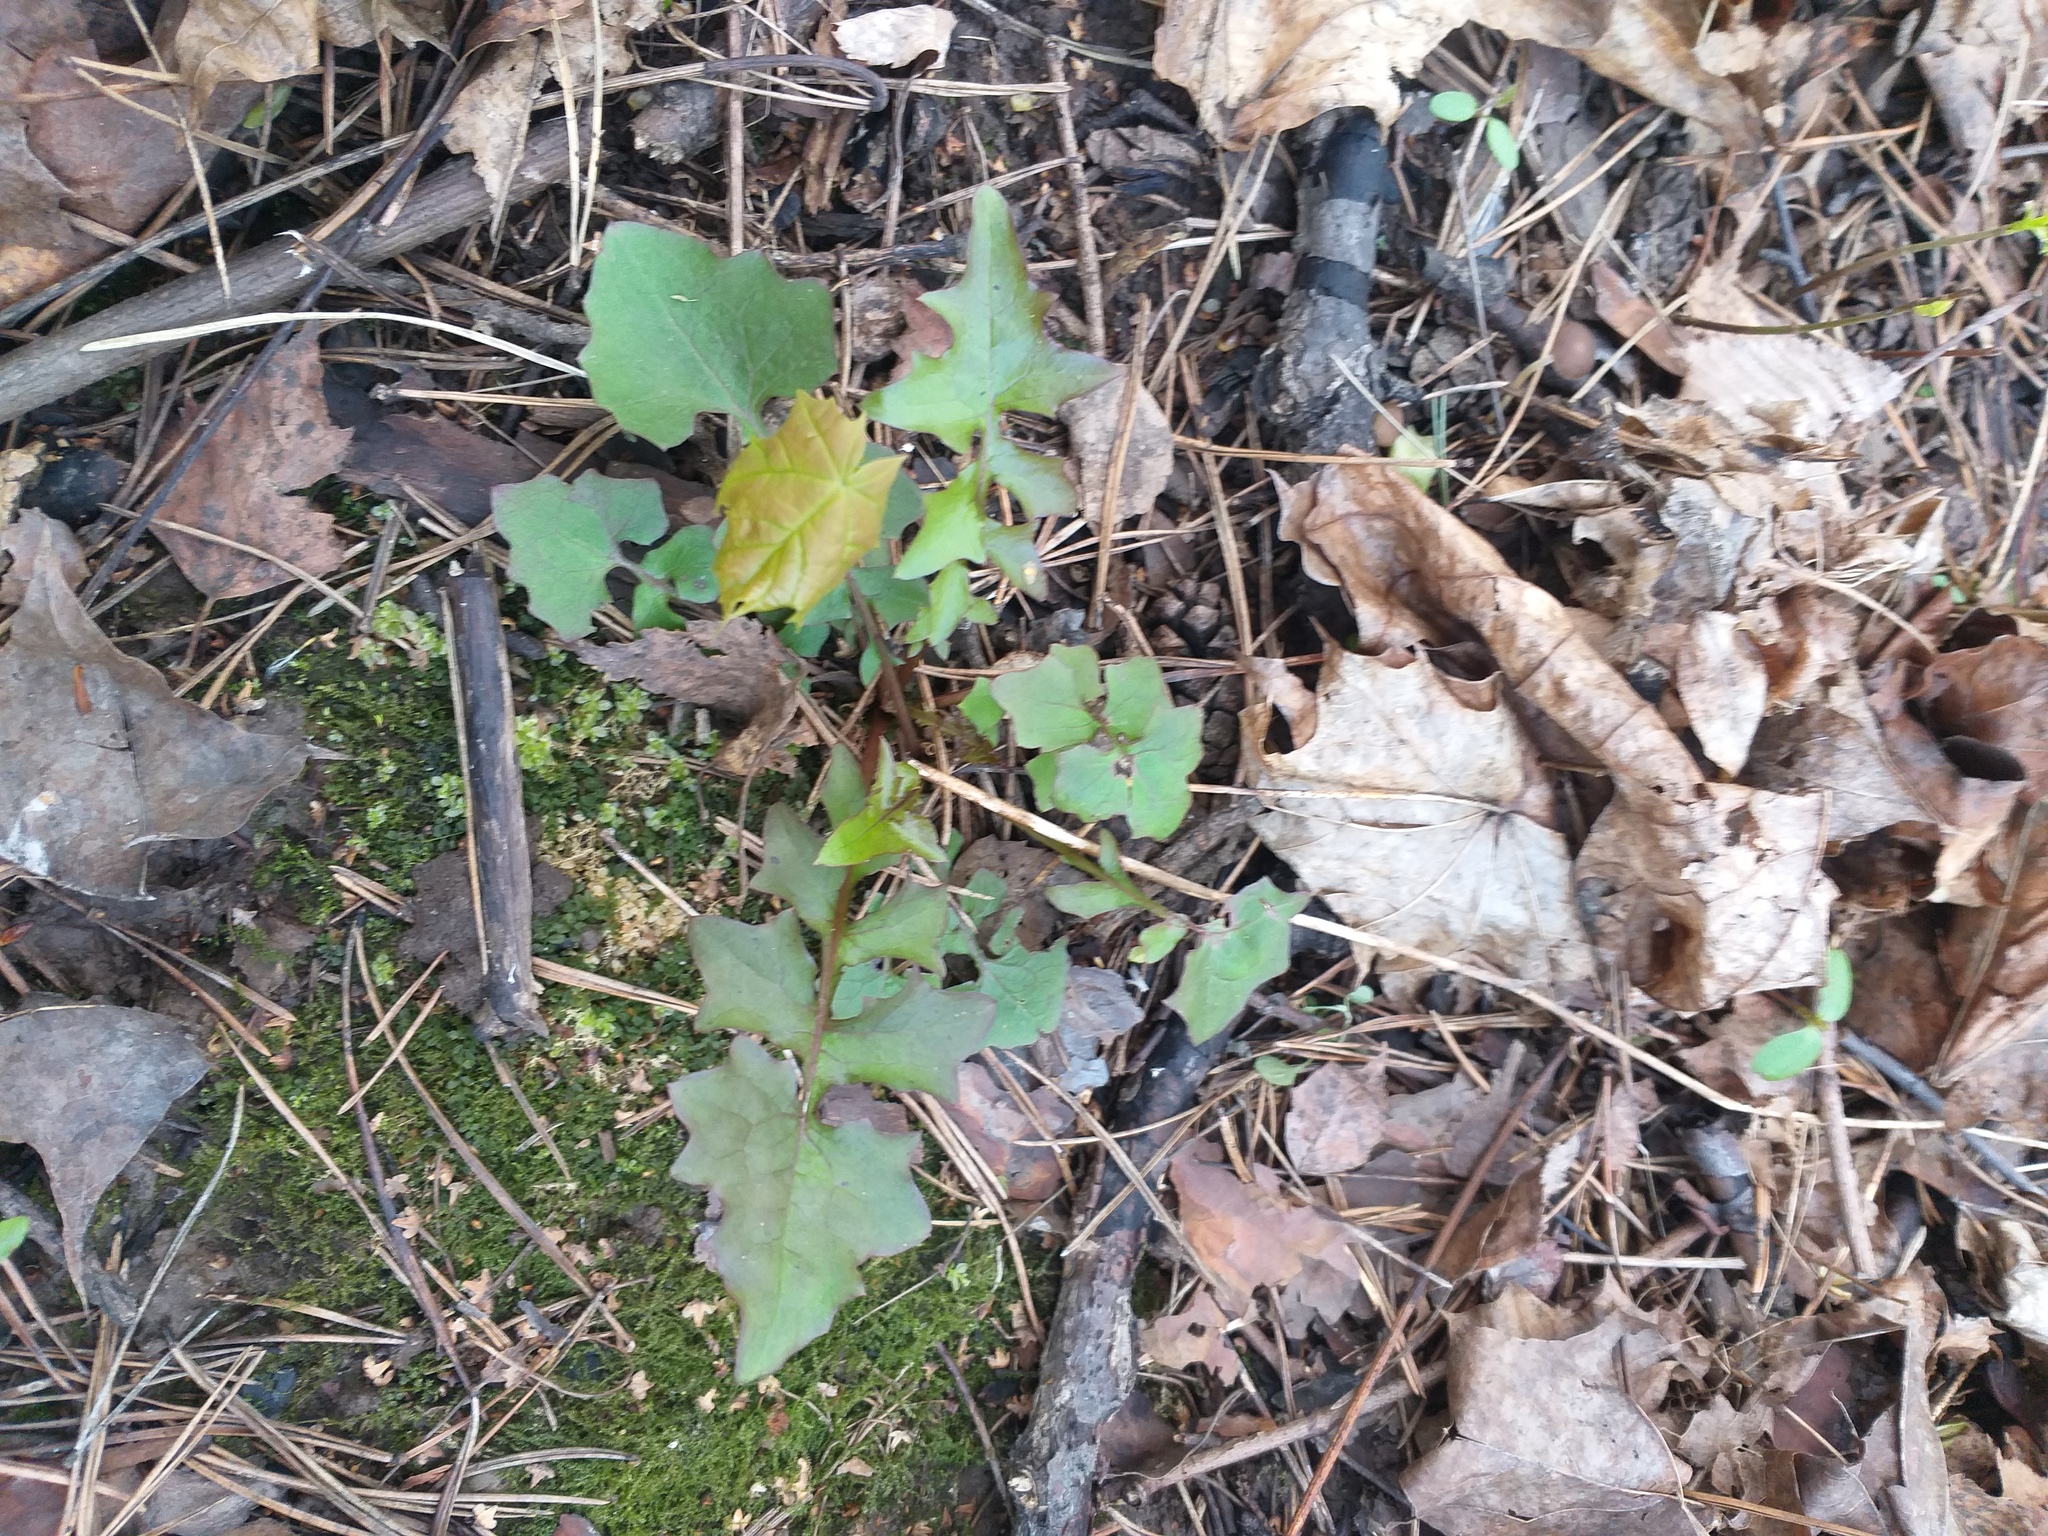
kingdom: Plantae
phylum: Tracheophyta
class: Magnoliopsida
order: Asterales
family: Asteraceae
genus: Mycelis
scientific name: Mycelis muralis
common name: Wall lettuce
